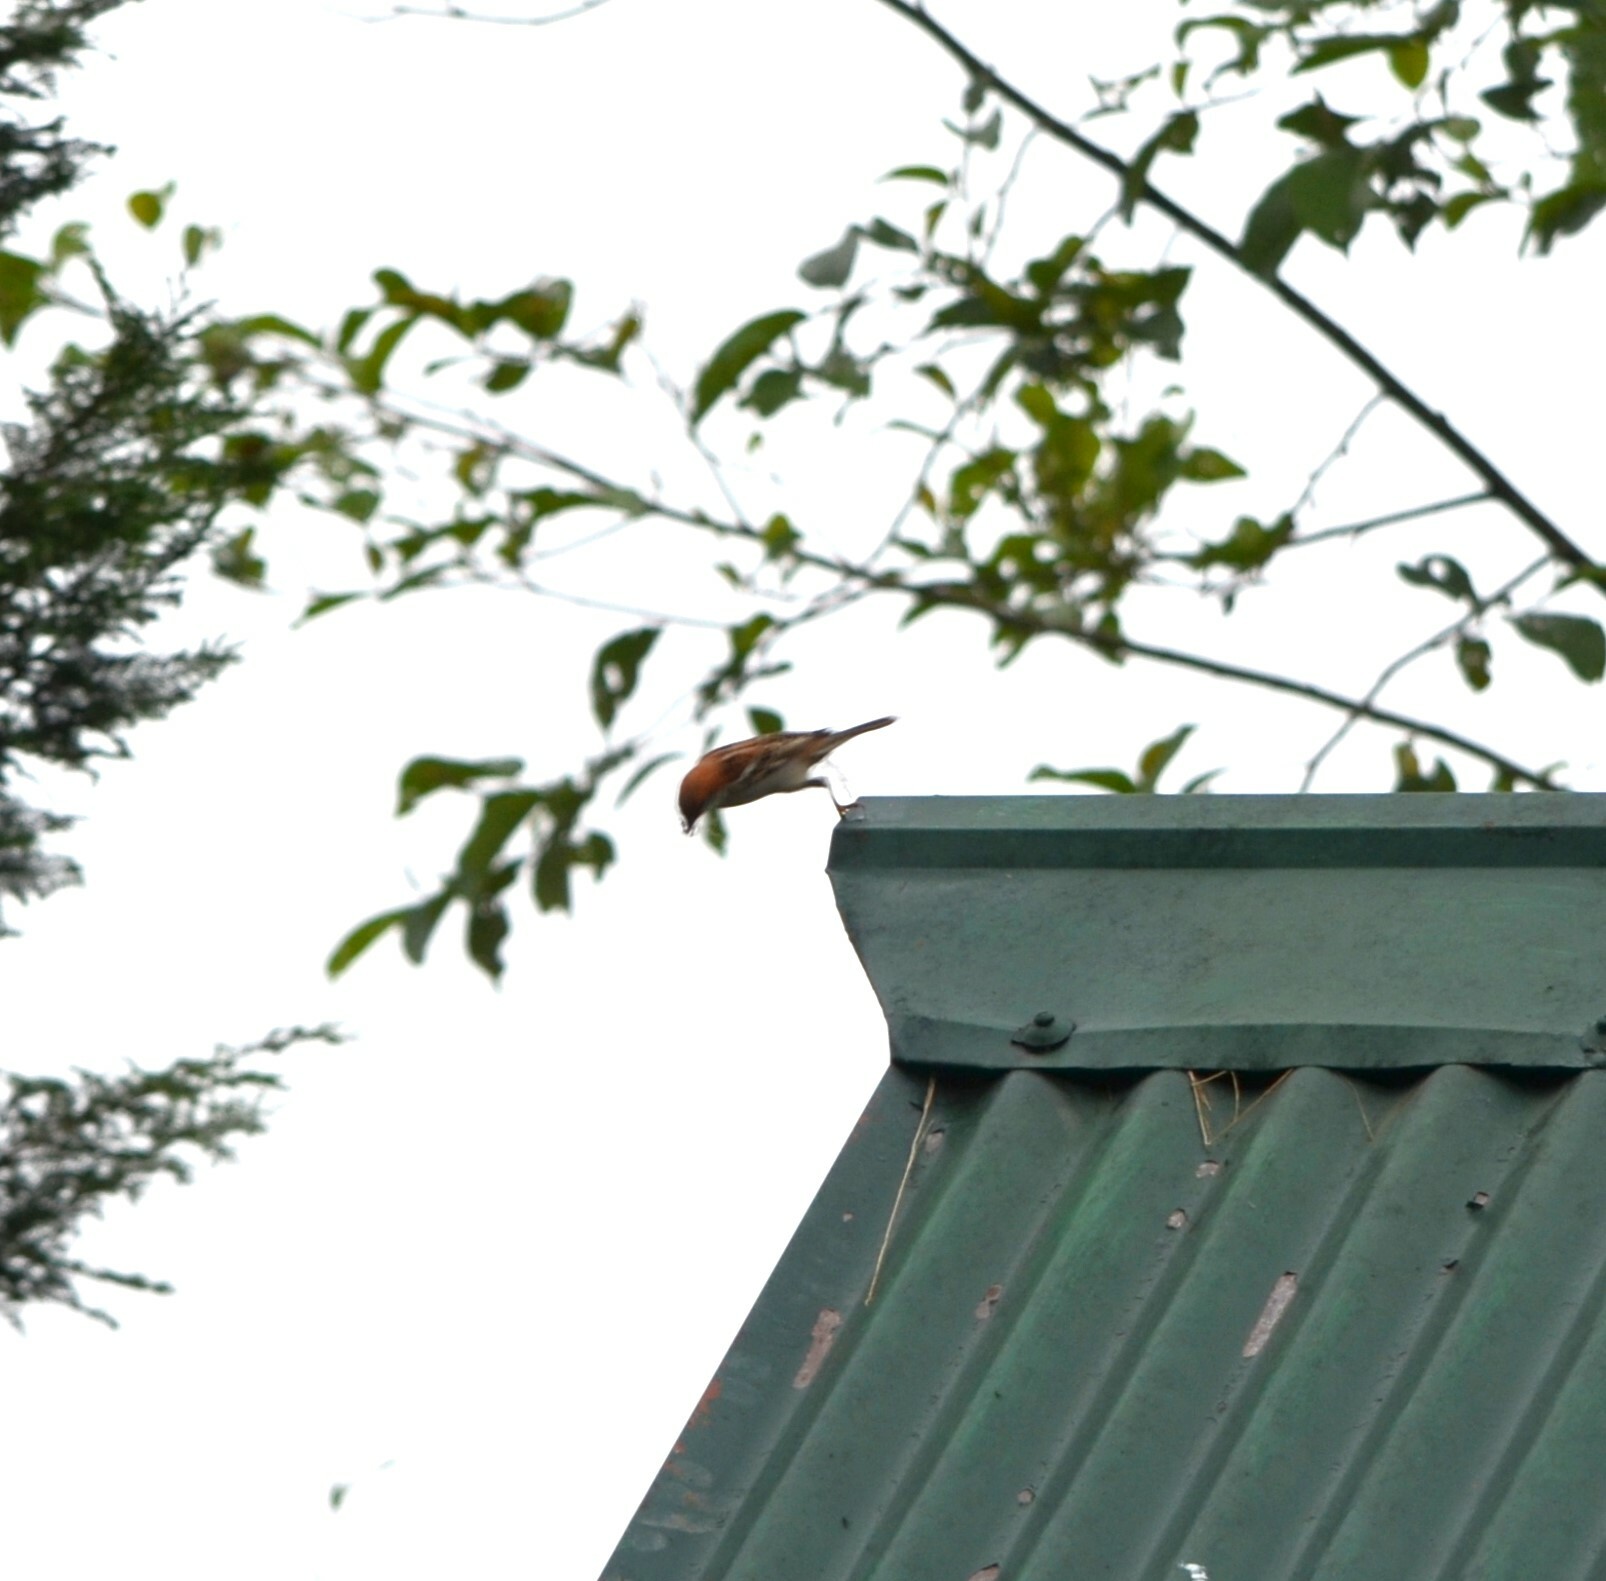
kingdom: Animalia
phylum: Chordata
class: Aves
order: Passeriformes
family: Passeridae
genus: Passer
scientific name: Passer cinnamomeus
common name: Russet sparrow
